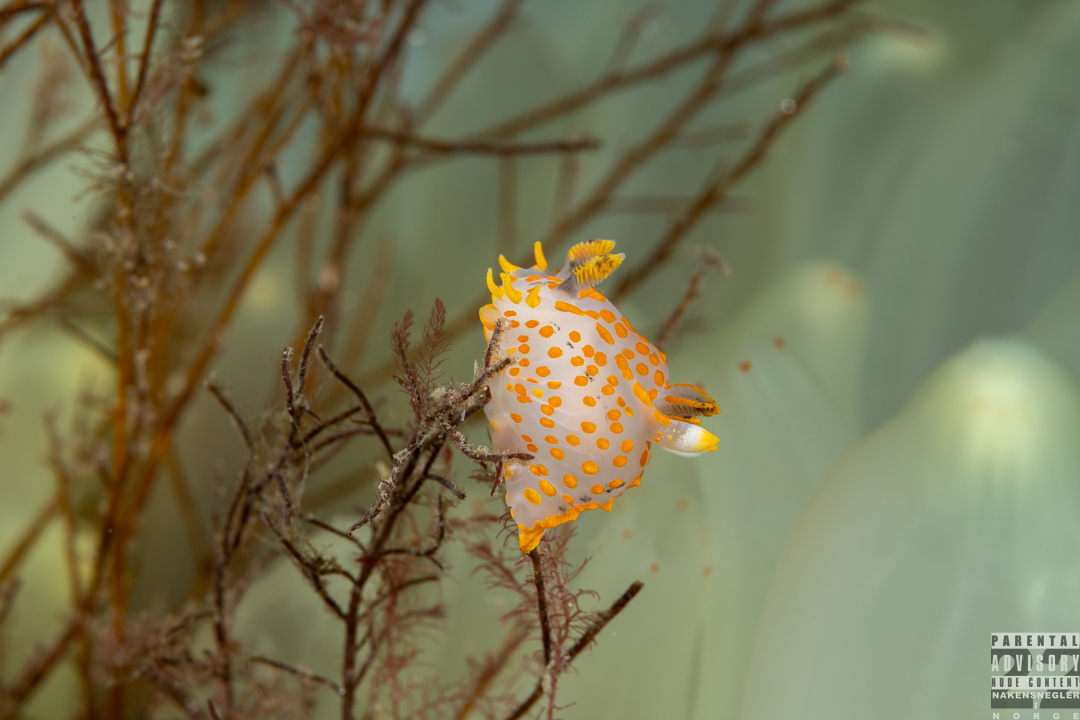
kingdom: Animalia
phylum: Mollusca
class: Gastropoda
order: Nudibranchia
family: Polyceridae
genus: Polycera
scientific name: Polycera quadrilineata
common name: Four-striped polycera
